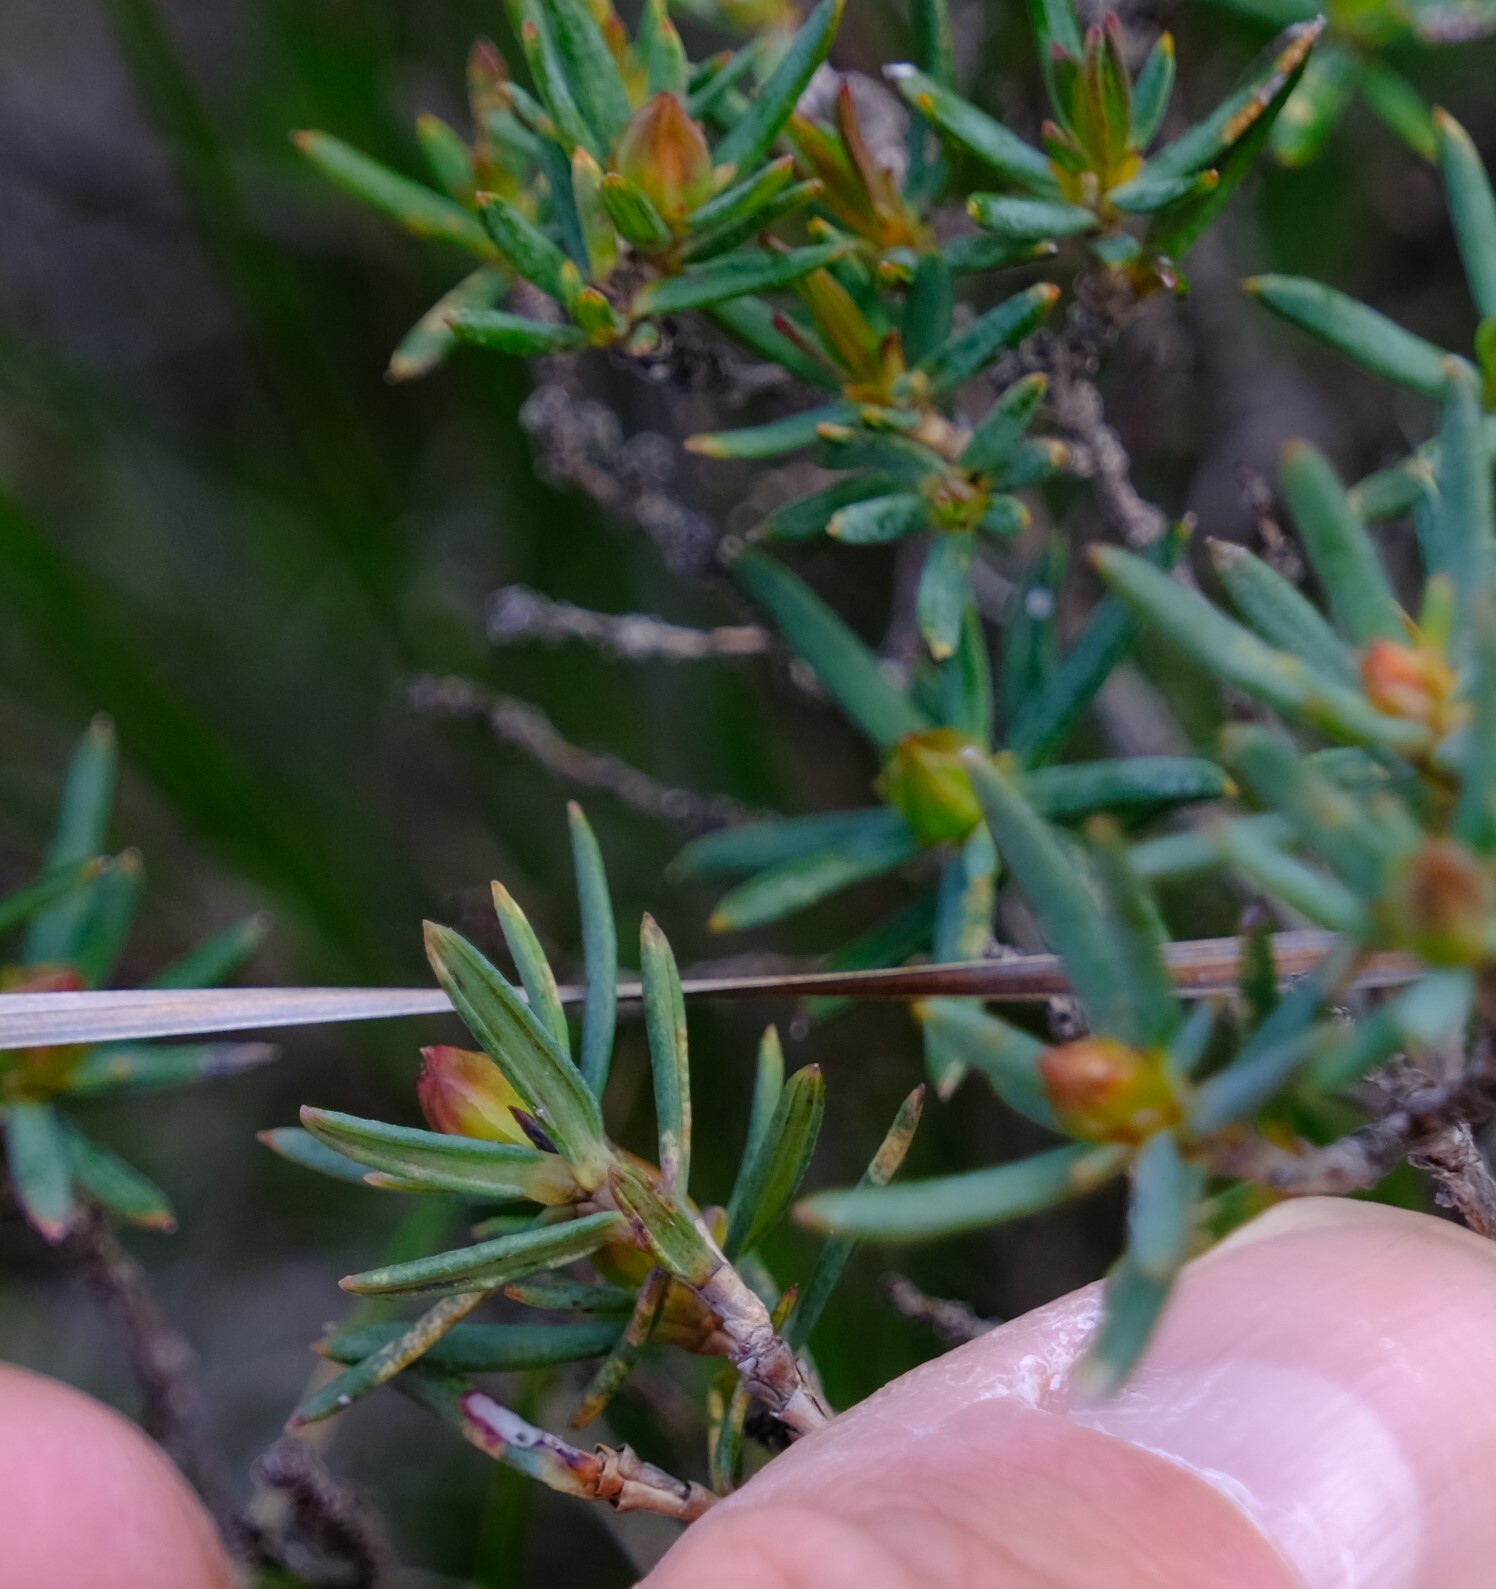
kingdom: Plantae
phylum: Tracheophyta
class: Magnoliopsida
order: Dilleniales
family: Dilleniaceae
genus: Hibbertia
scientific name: Hibbertia aurea
